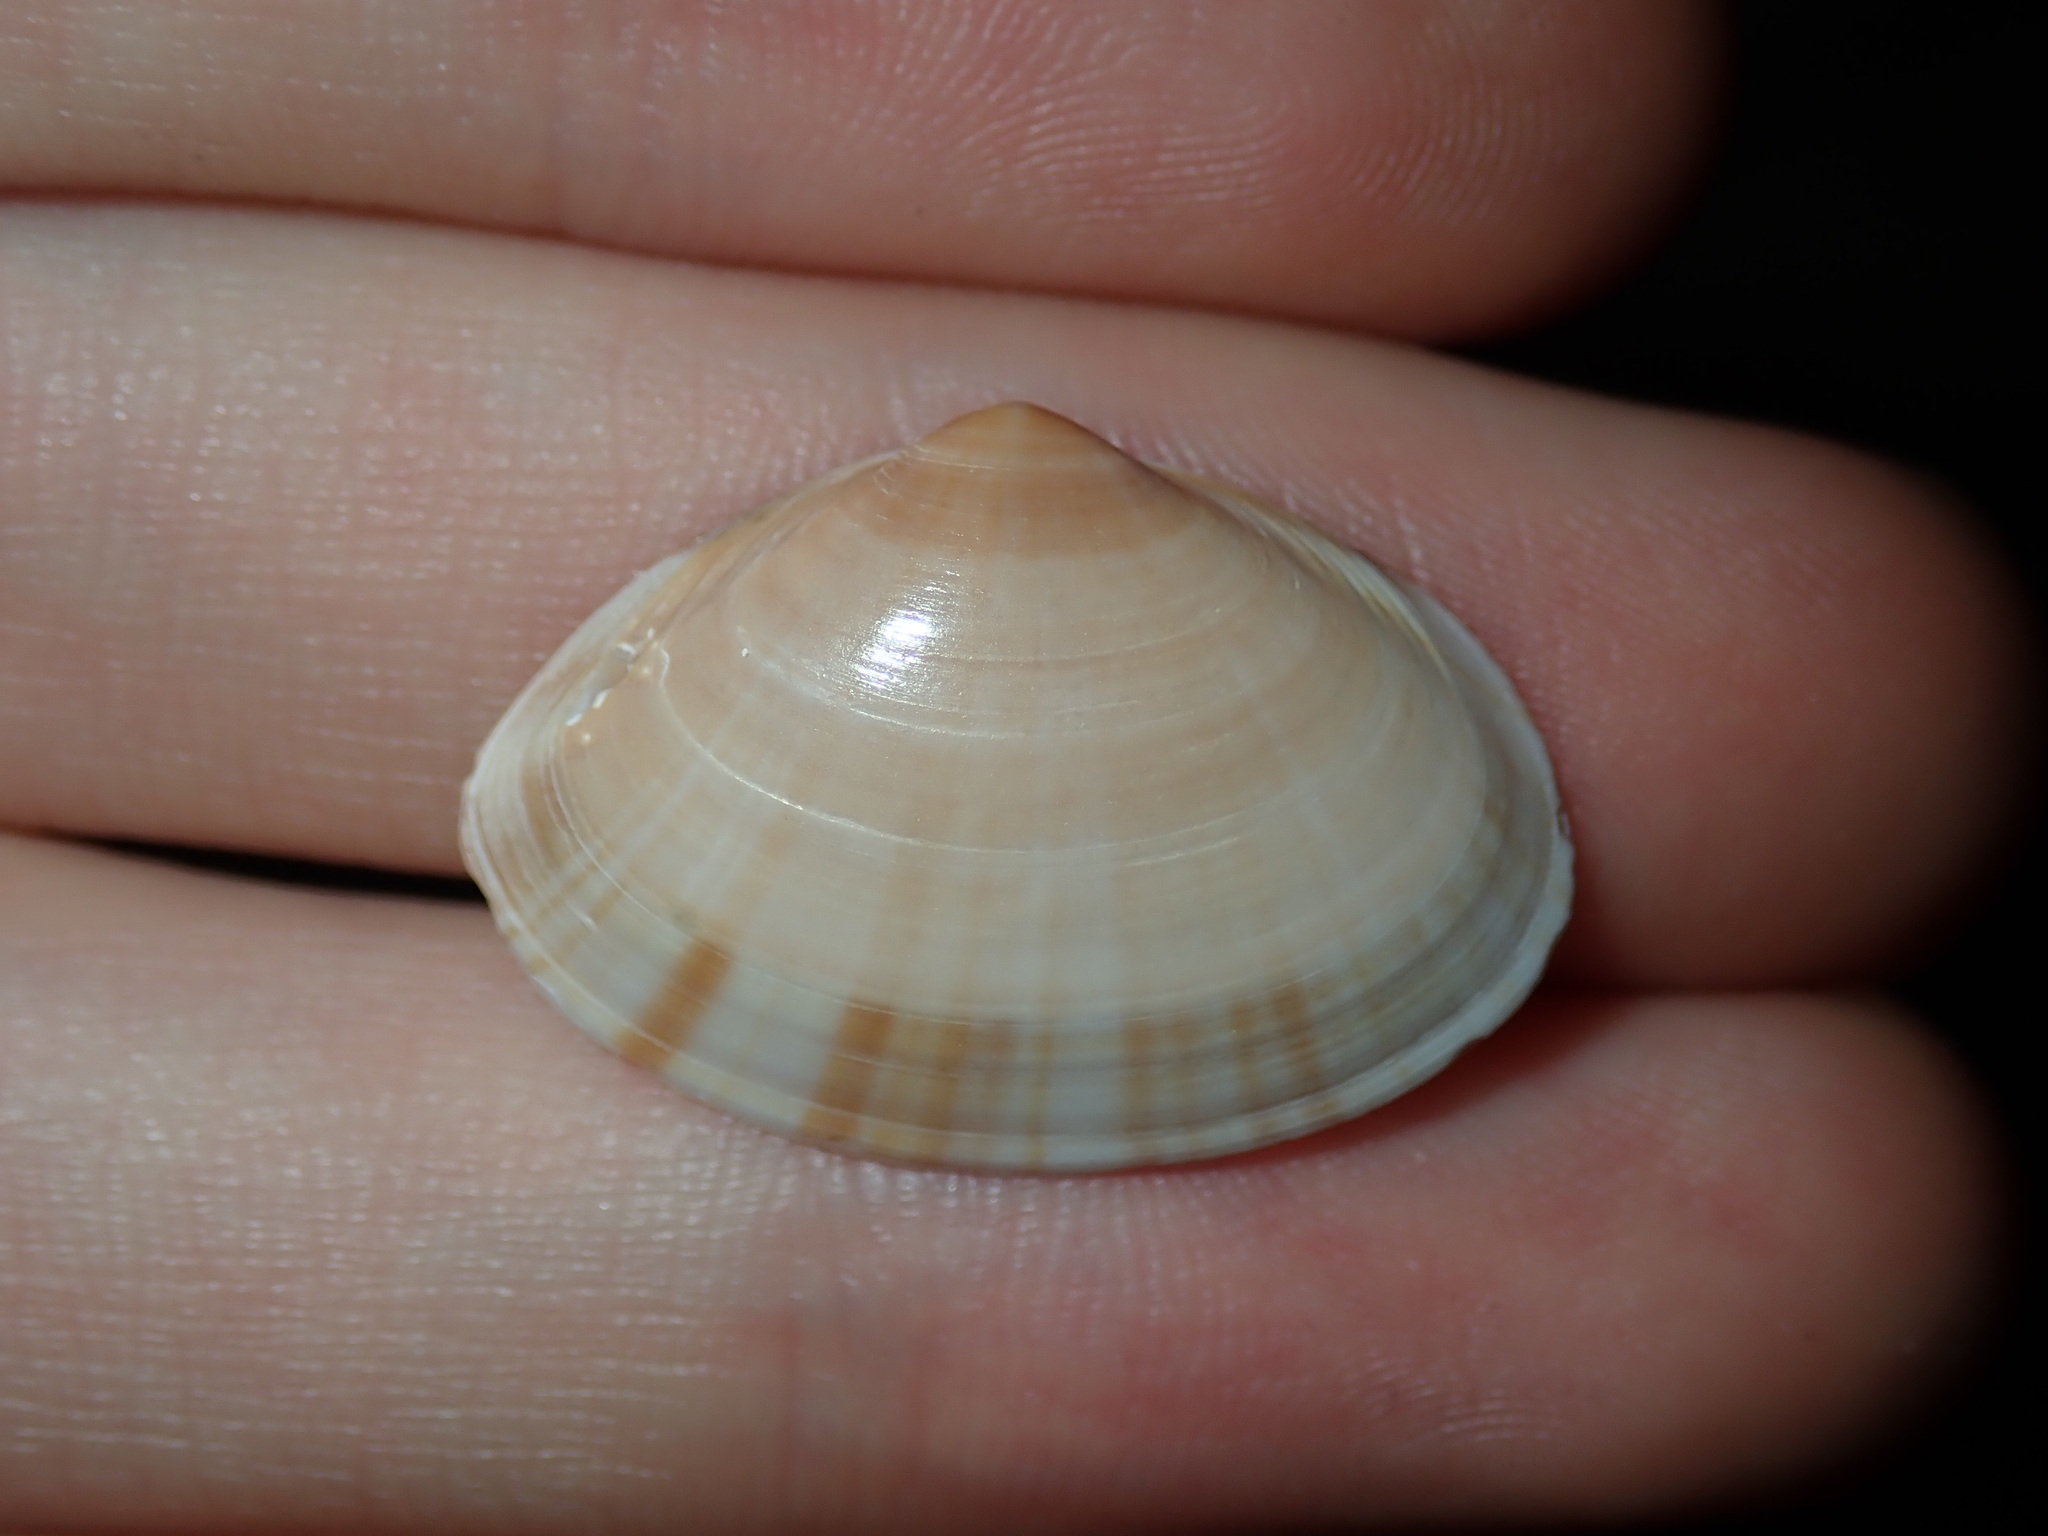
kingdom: Animalia
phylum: Mollusca
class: Bivalvia
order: Venerida
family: Mactridae
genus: Mactra
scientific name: Mactra pusilla
